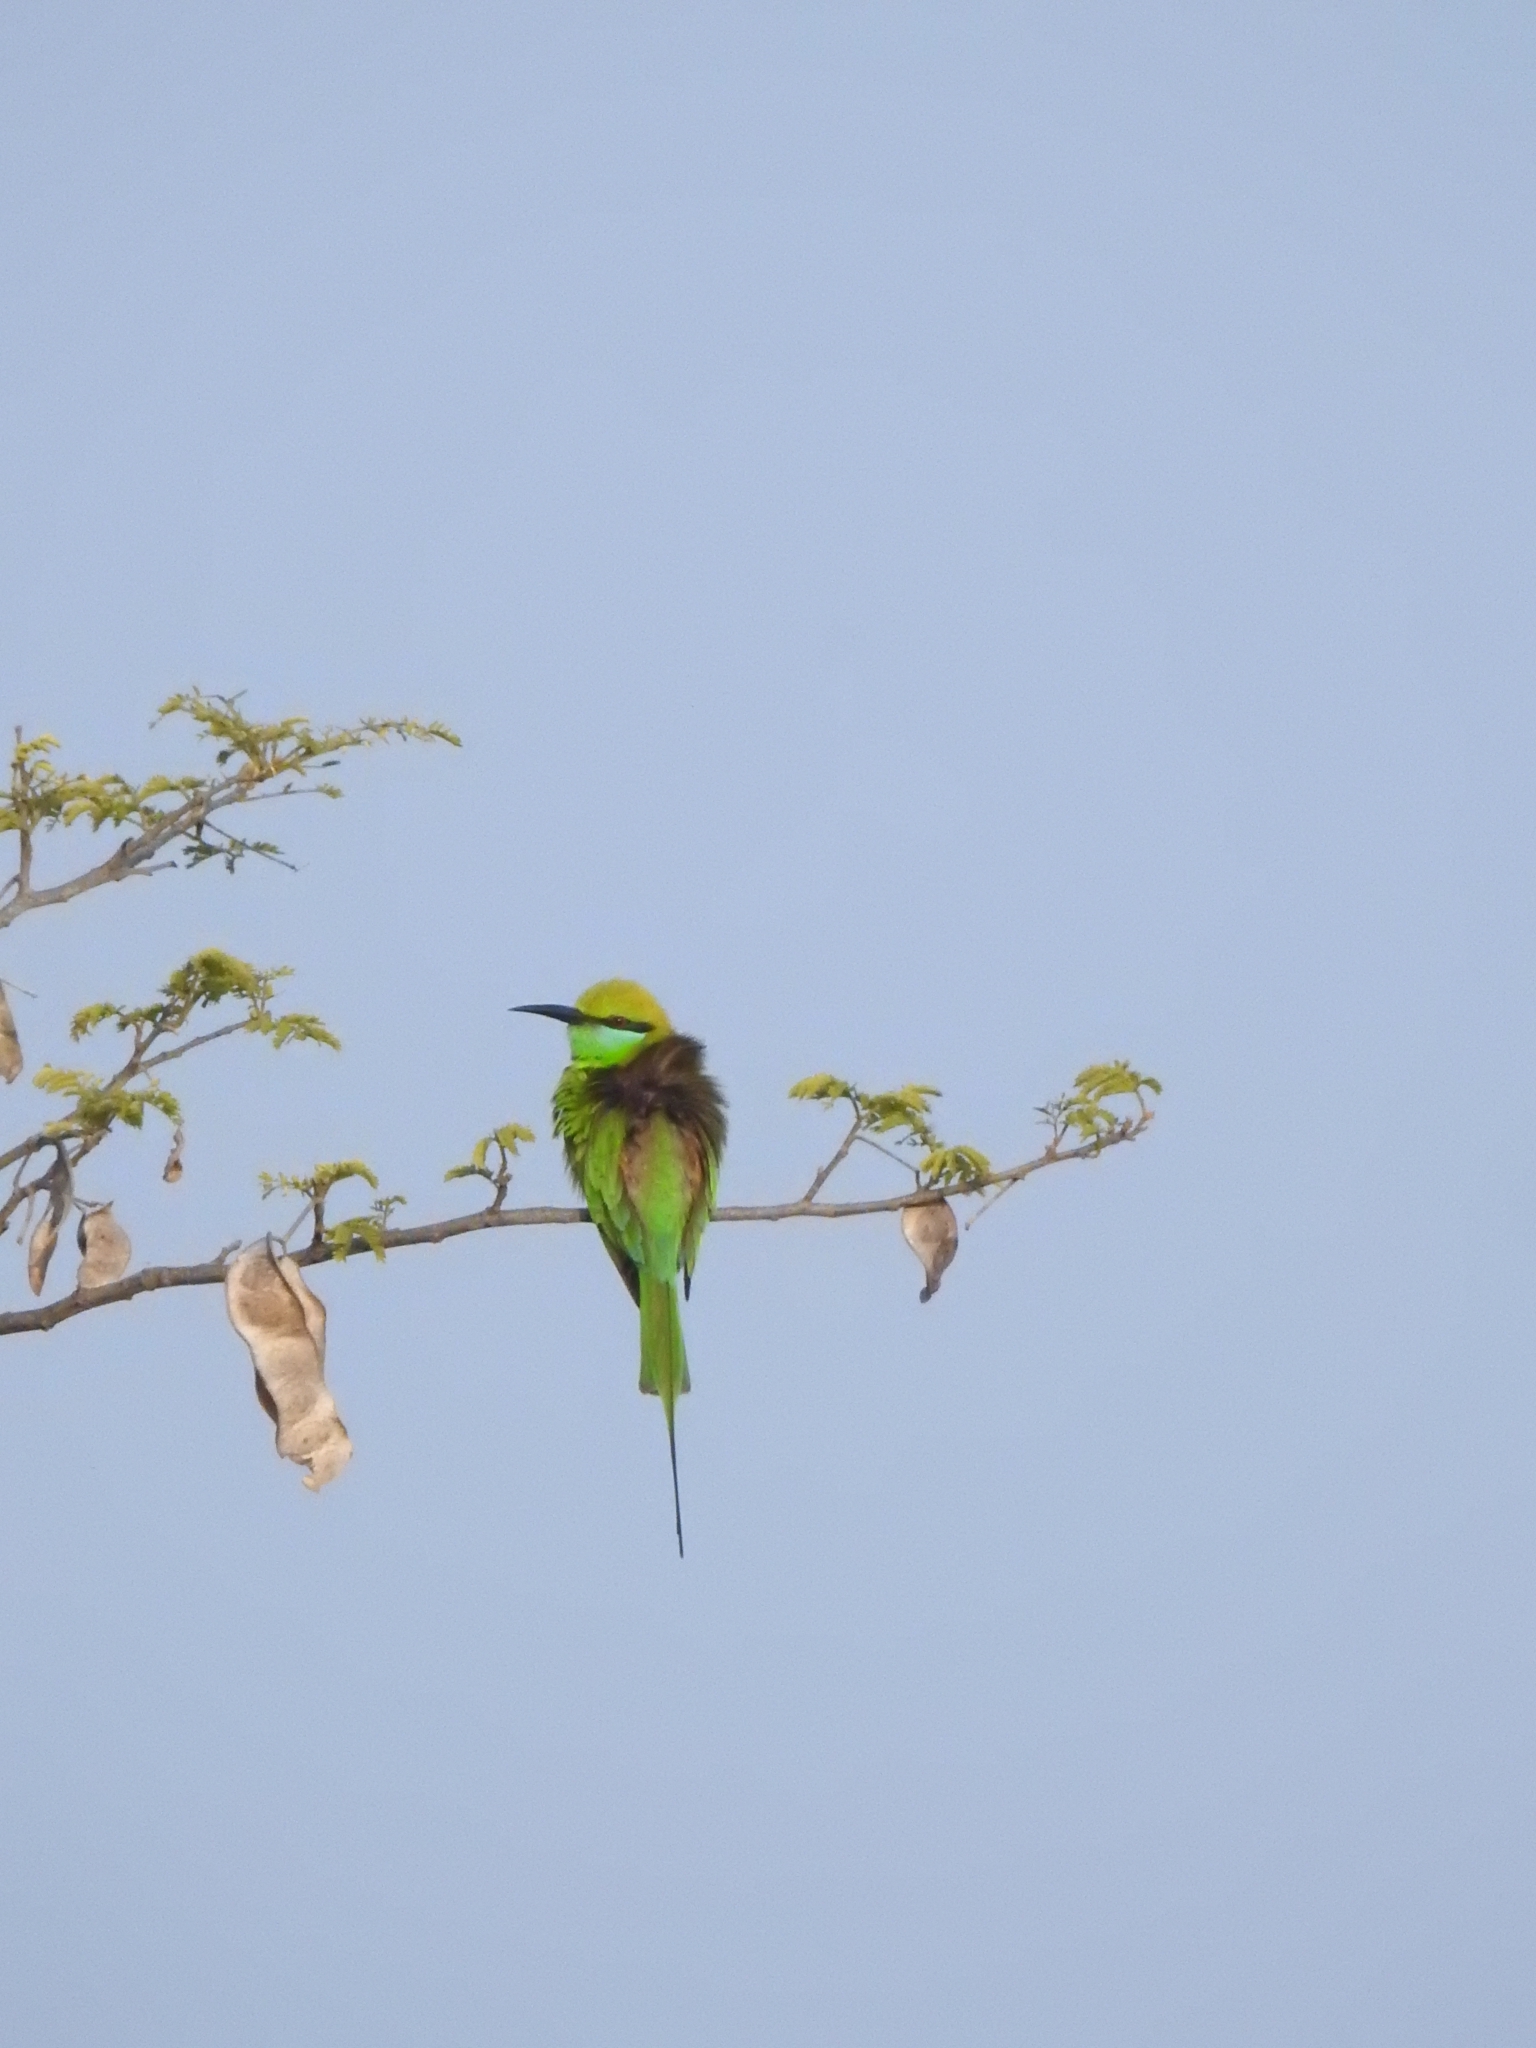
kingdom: Animalia
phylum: Chordata
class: Aves
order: Coraciiformes
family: Meropidae
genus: Merops
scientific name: Merops orientalis
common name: Green bee-eater
